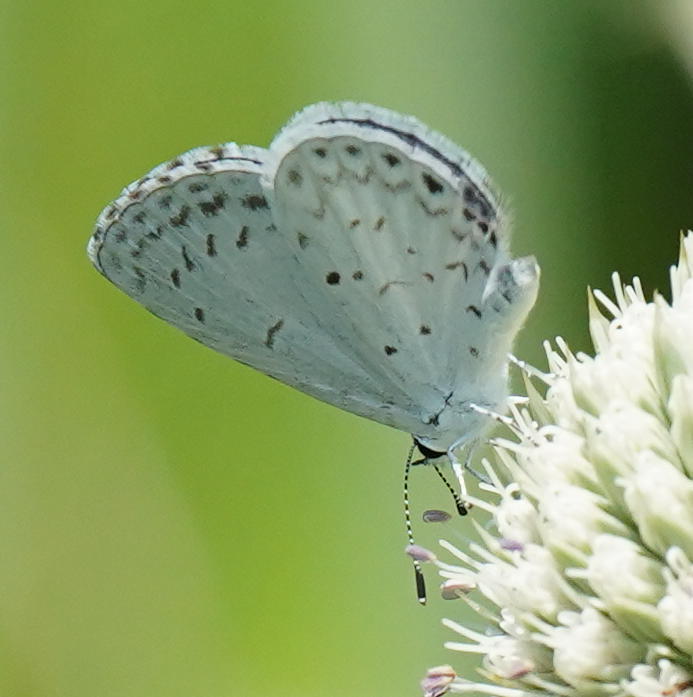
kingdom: Animalia
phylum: Arthropoda
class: Insecta
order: Lepidoptera
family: Lycaenidae
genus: Cyaniris
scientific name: Cyaniris neglecta
